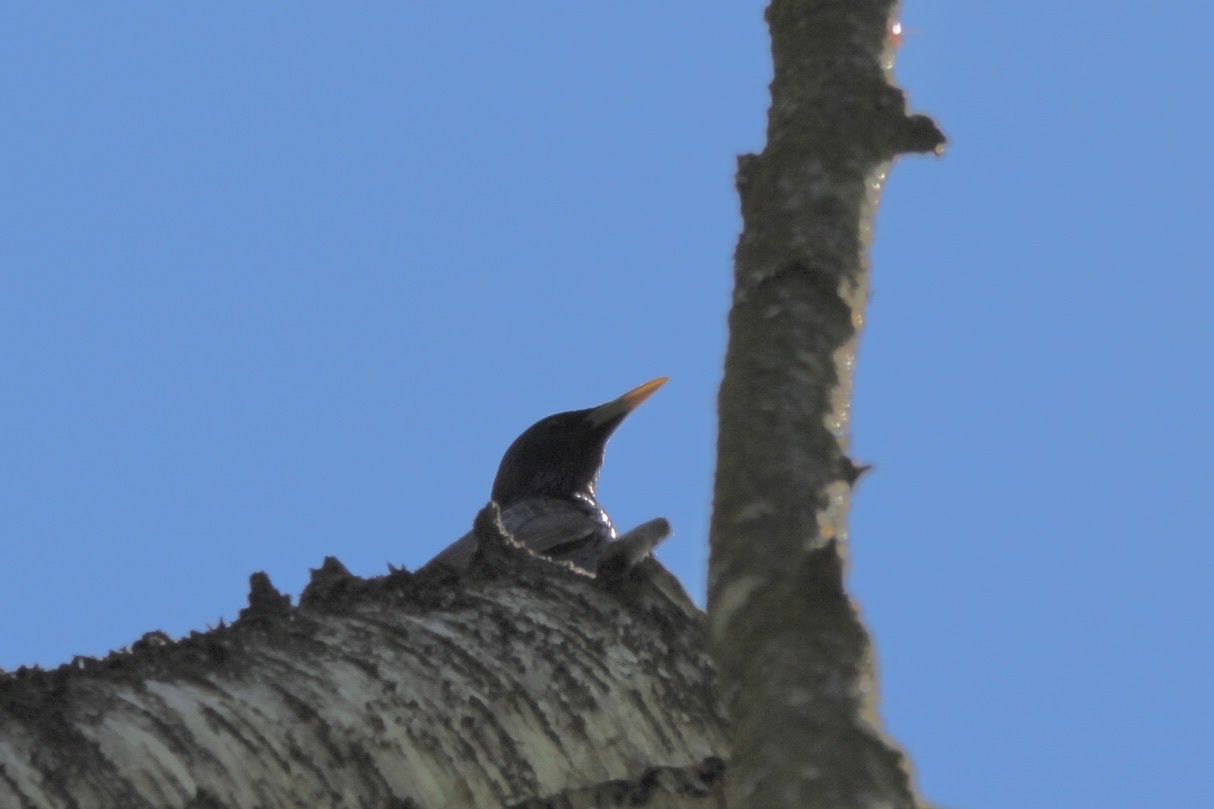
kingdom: Animalia
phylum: Chordata
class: Aves
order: Passeriformes
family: Sturnidae
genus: Sturnus
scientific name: Sturnus vulgaris
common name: Common starling
